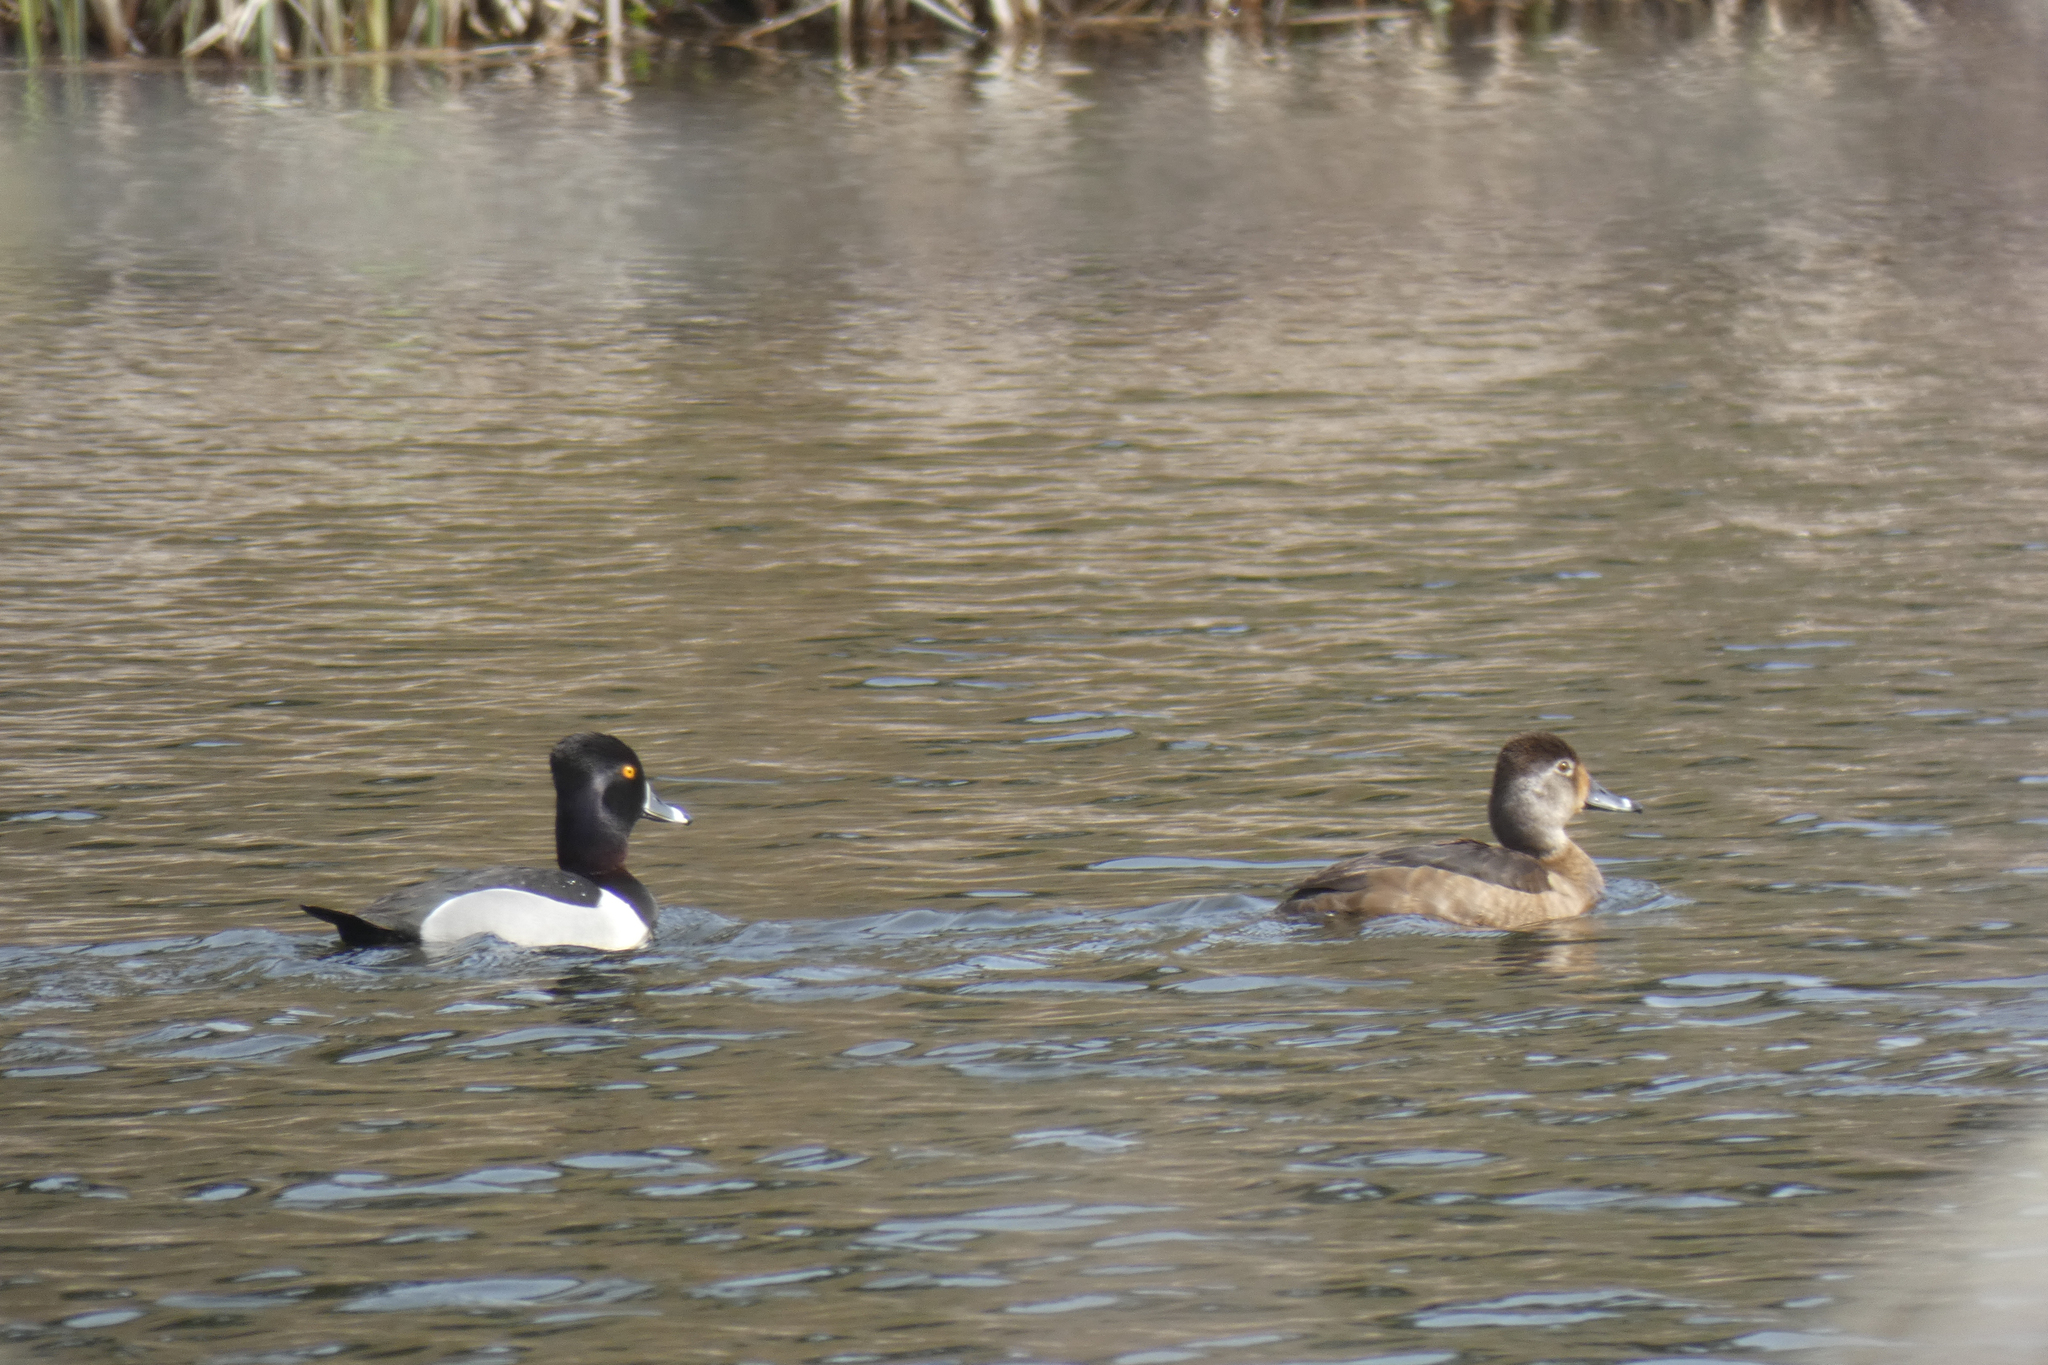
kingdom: Animalia
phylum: Chordata
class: Aves
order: Anseriformes
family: Anatidae
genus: Aythya
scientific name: Aythya collaris
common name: Ring-necked duck
